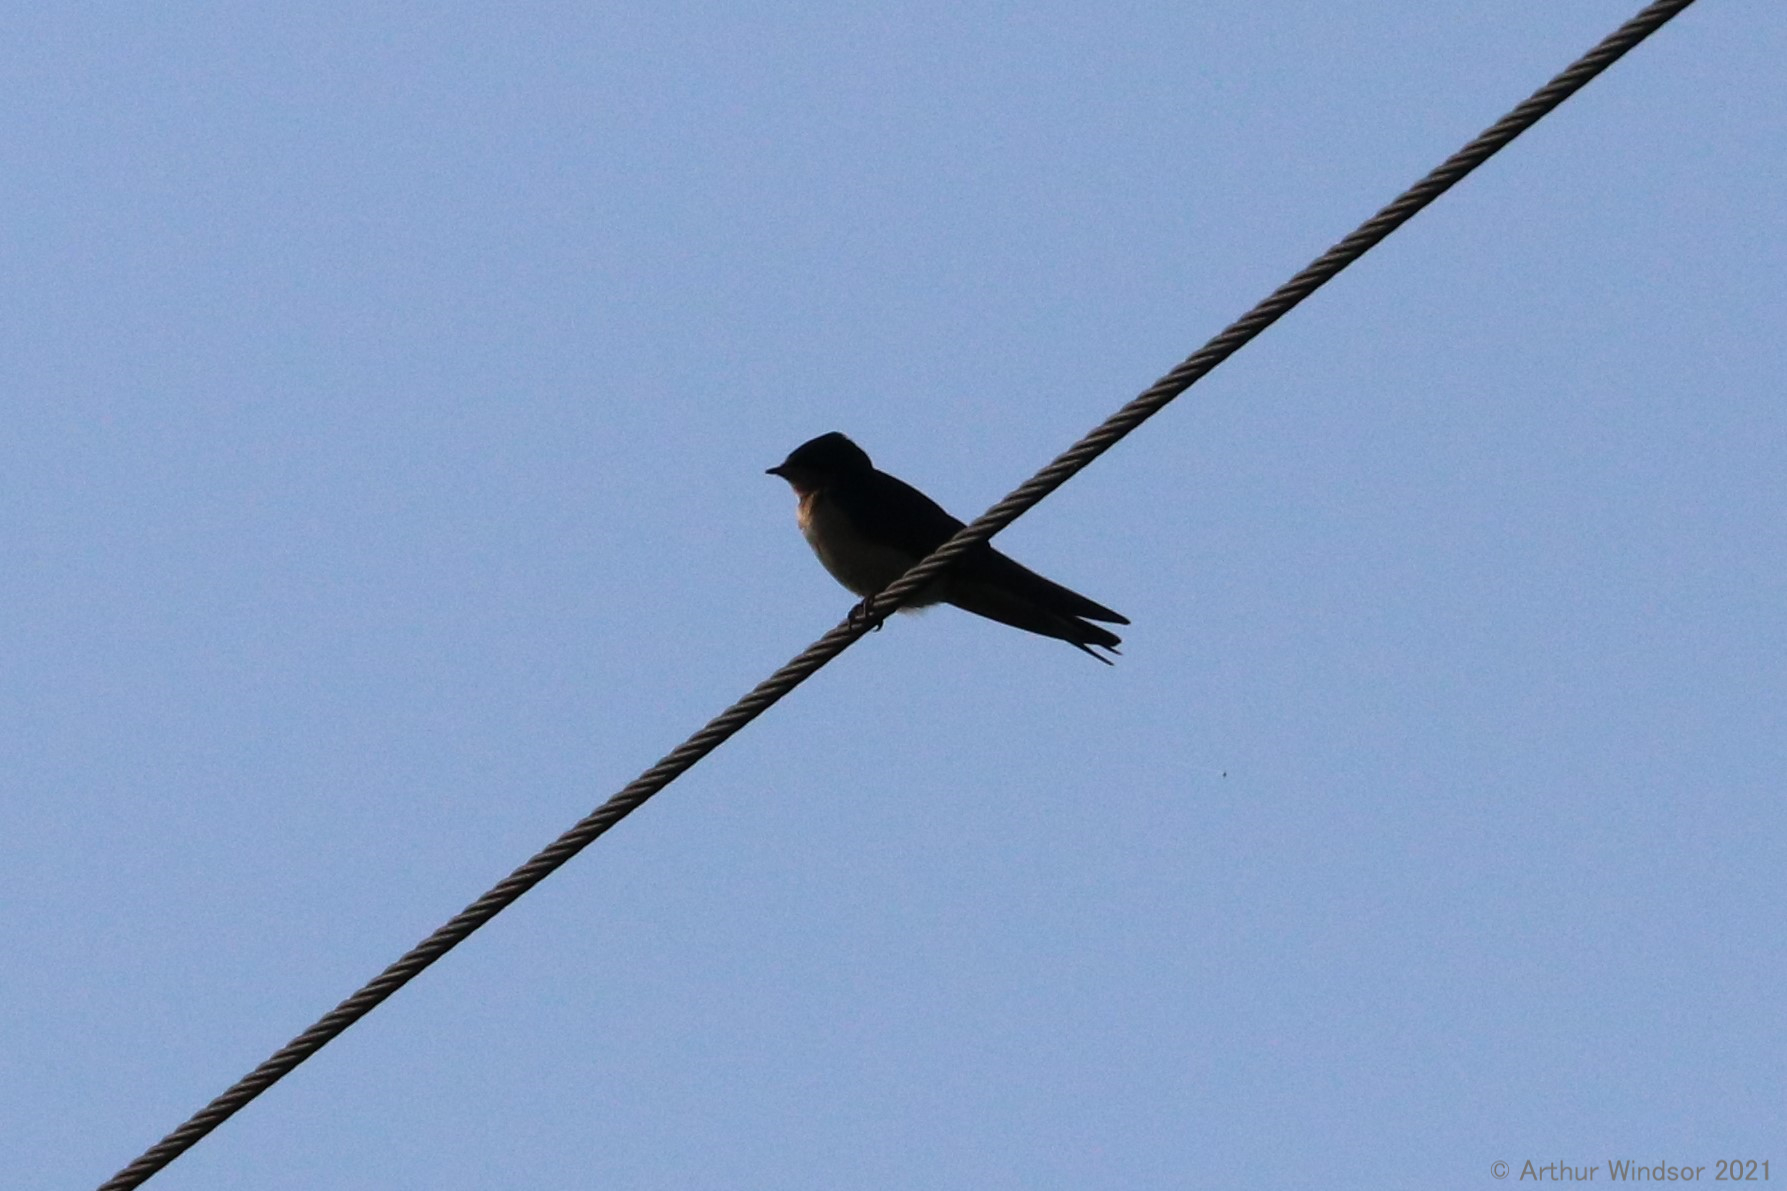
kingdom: Animalia
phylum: Chordata
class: Aves
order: Passeriformes
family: Hirundinidae
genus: Hirundo
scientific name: Hirundo rustica
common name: Barn swallow
